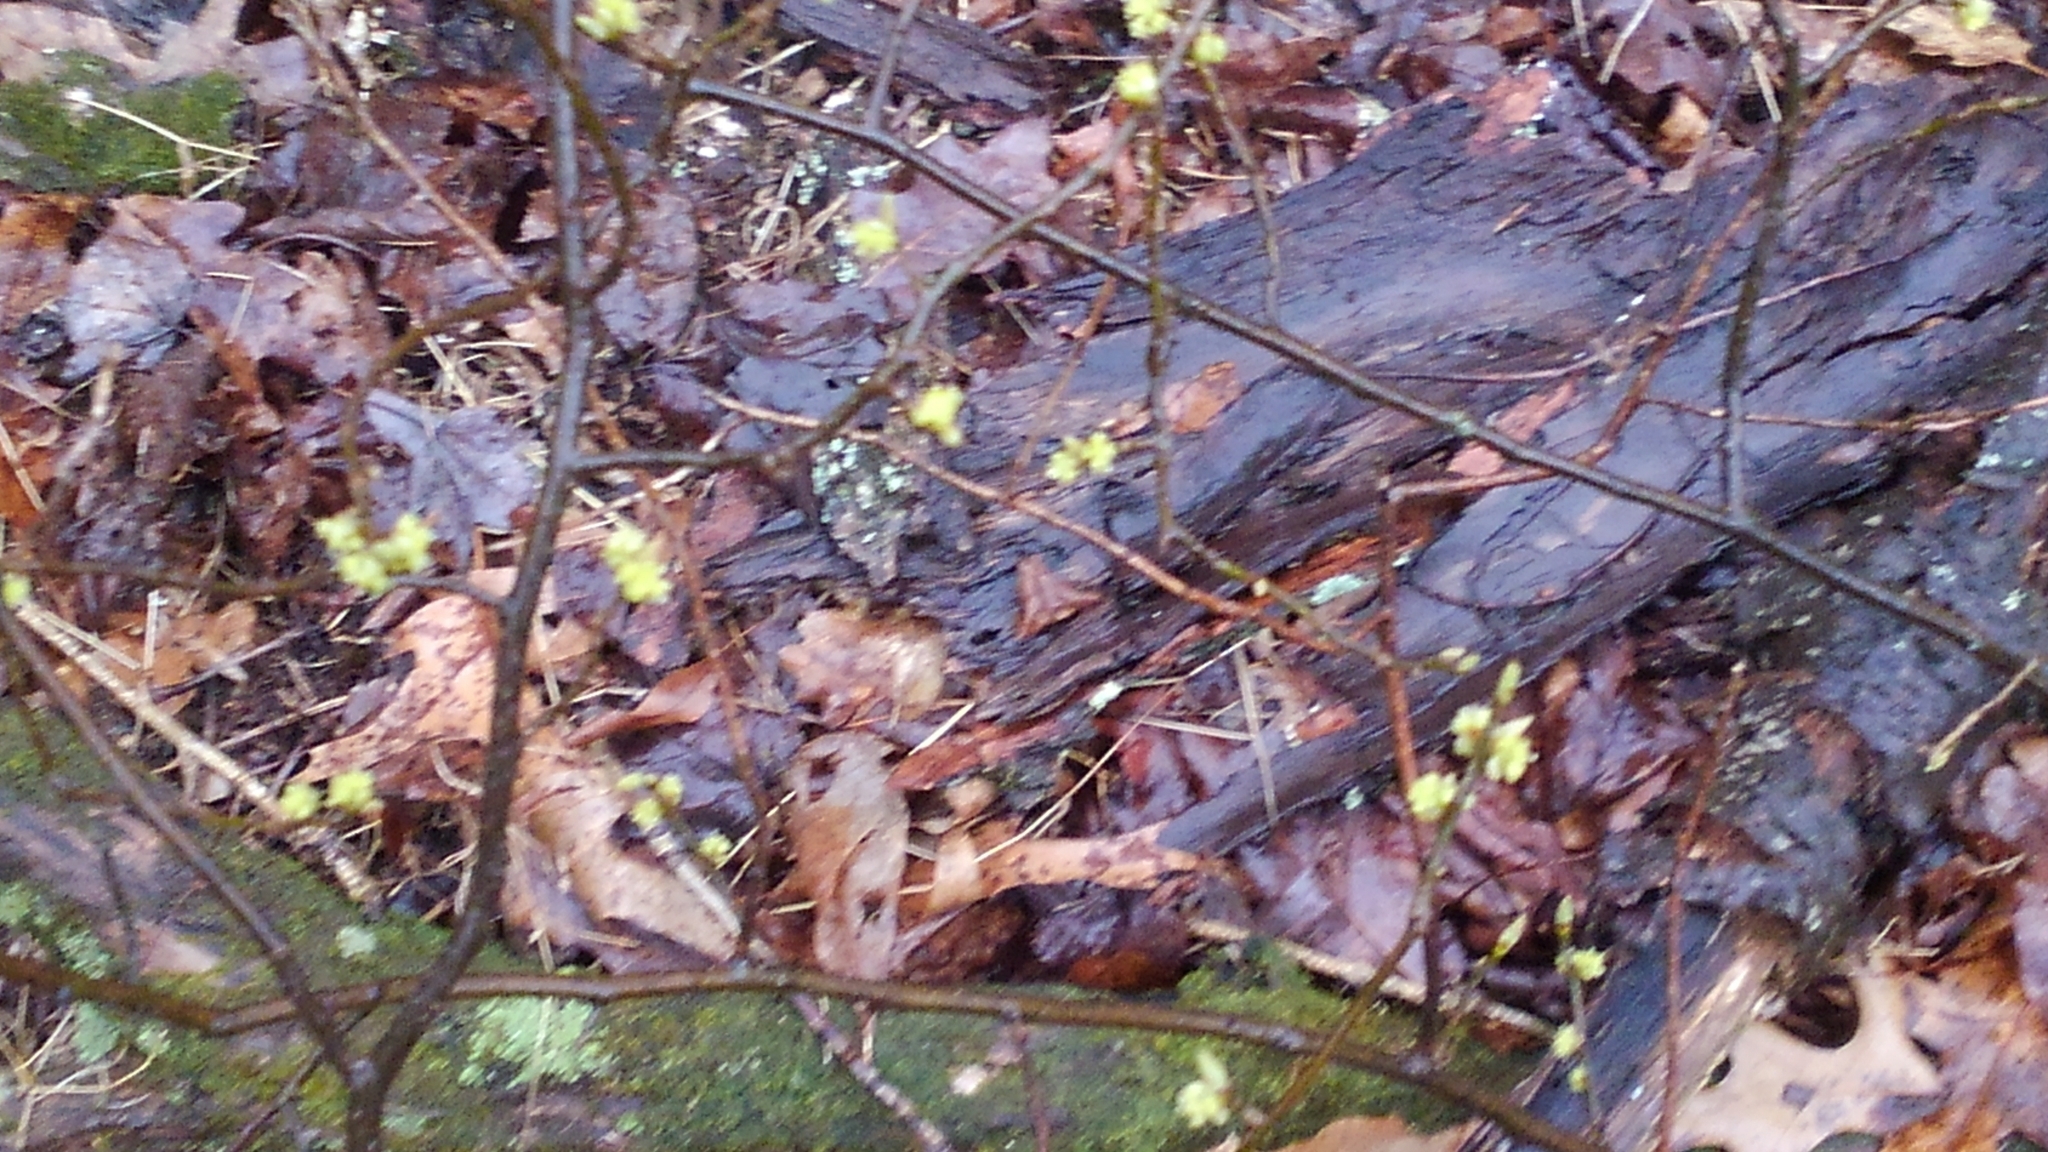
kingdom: Plantae
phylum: Tracheophyta
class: Magnoliopsida
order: Laurales
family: Lauraceae
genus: Lindera
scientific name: Lindera benzoin
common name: Spicebush
